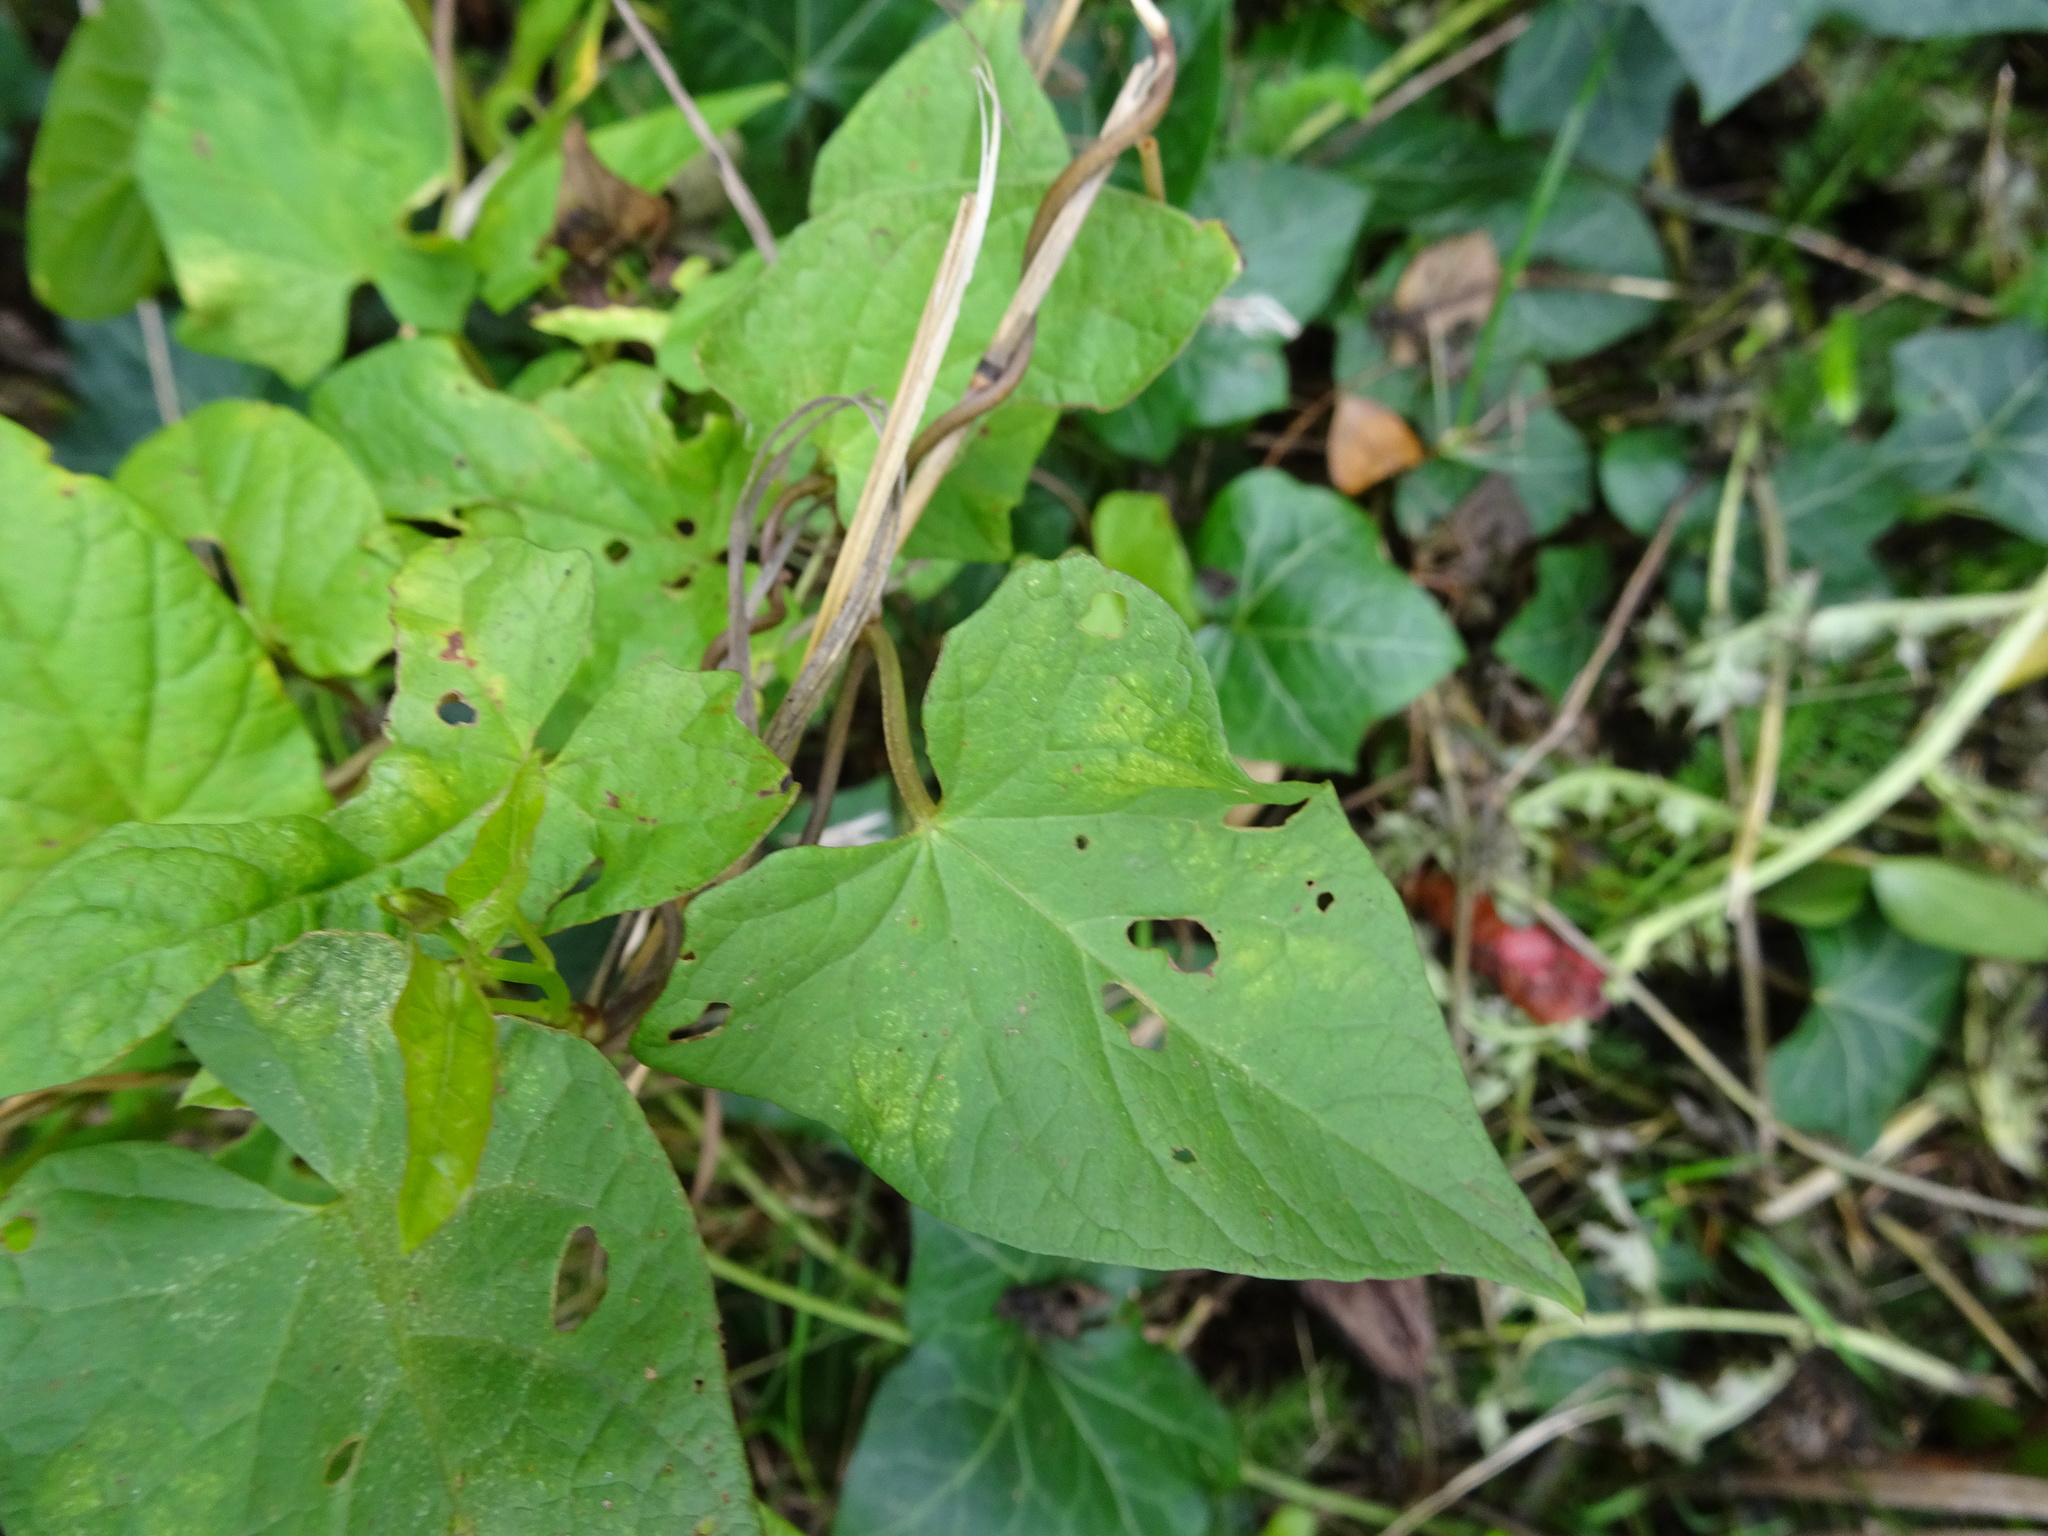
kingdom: Plantae
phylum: Tracheophyta
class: Magnoliopsida
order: Solanales
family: Convolvulaceae
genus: Calystegia
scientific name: Calystegia sepium
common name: Hedge bindweed
